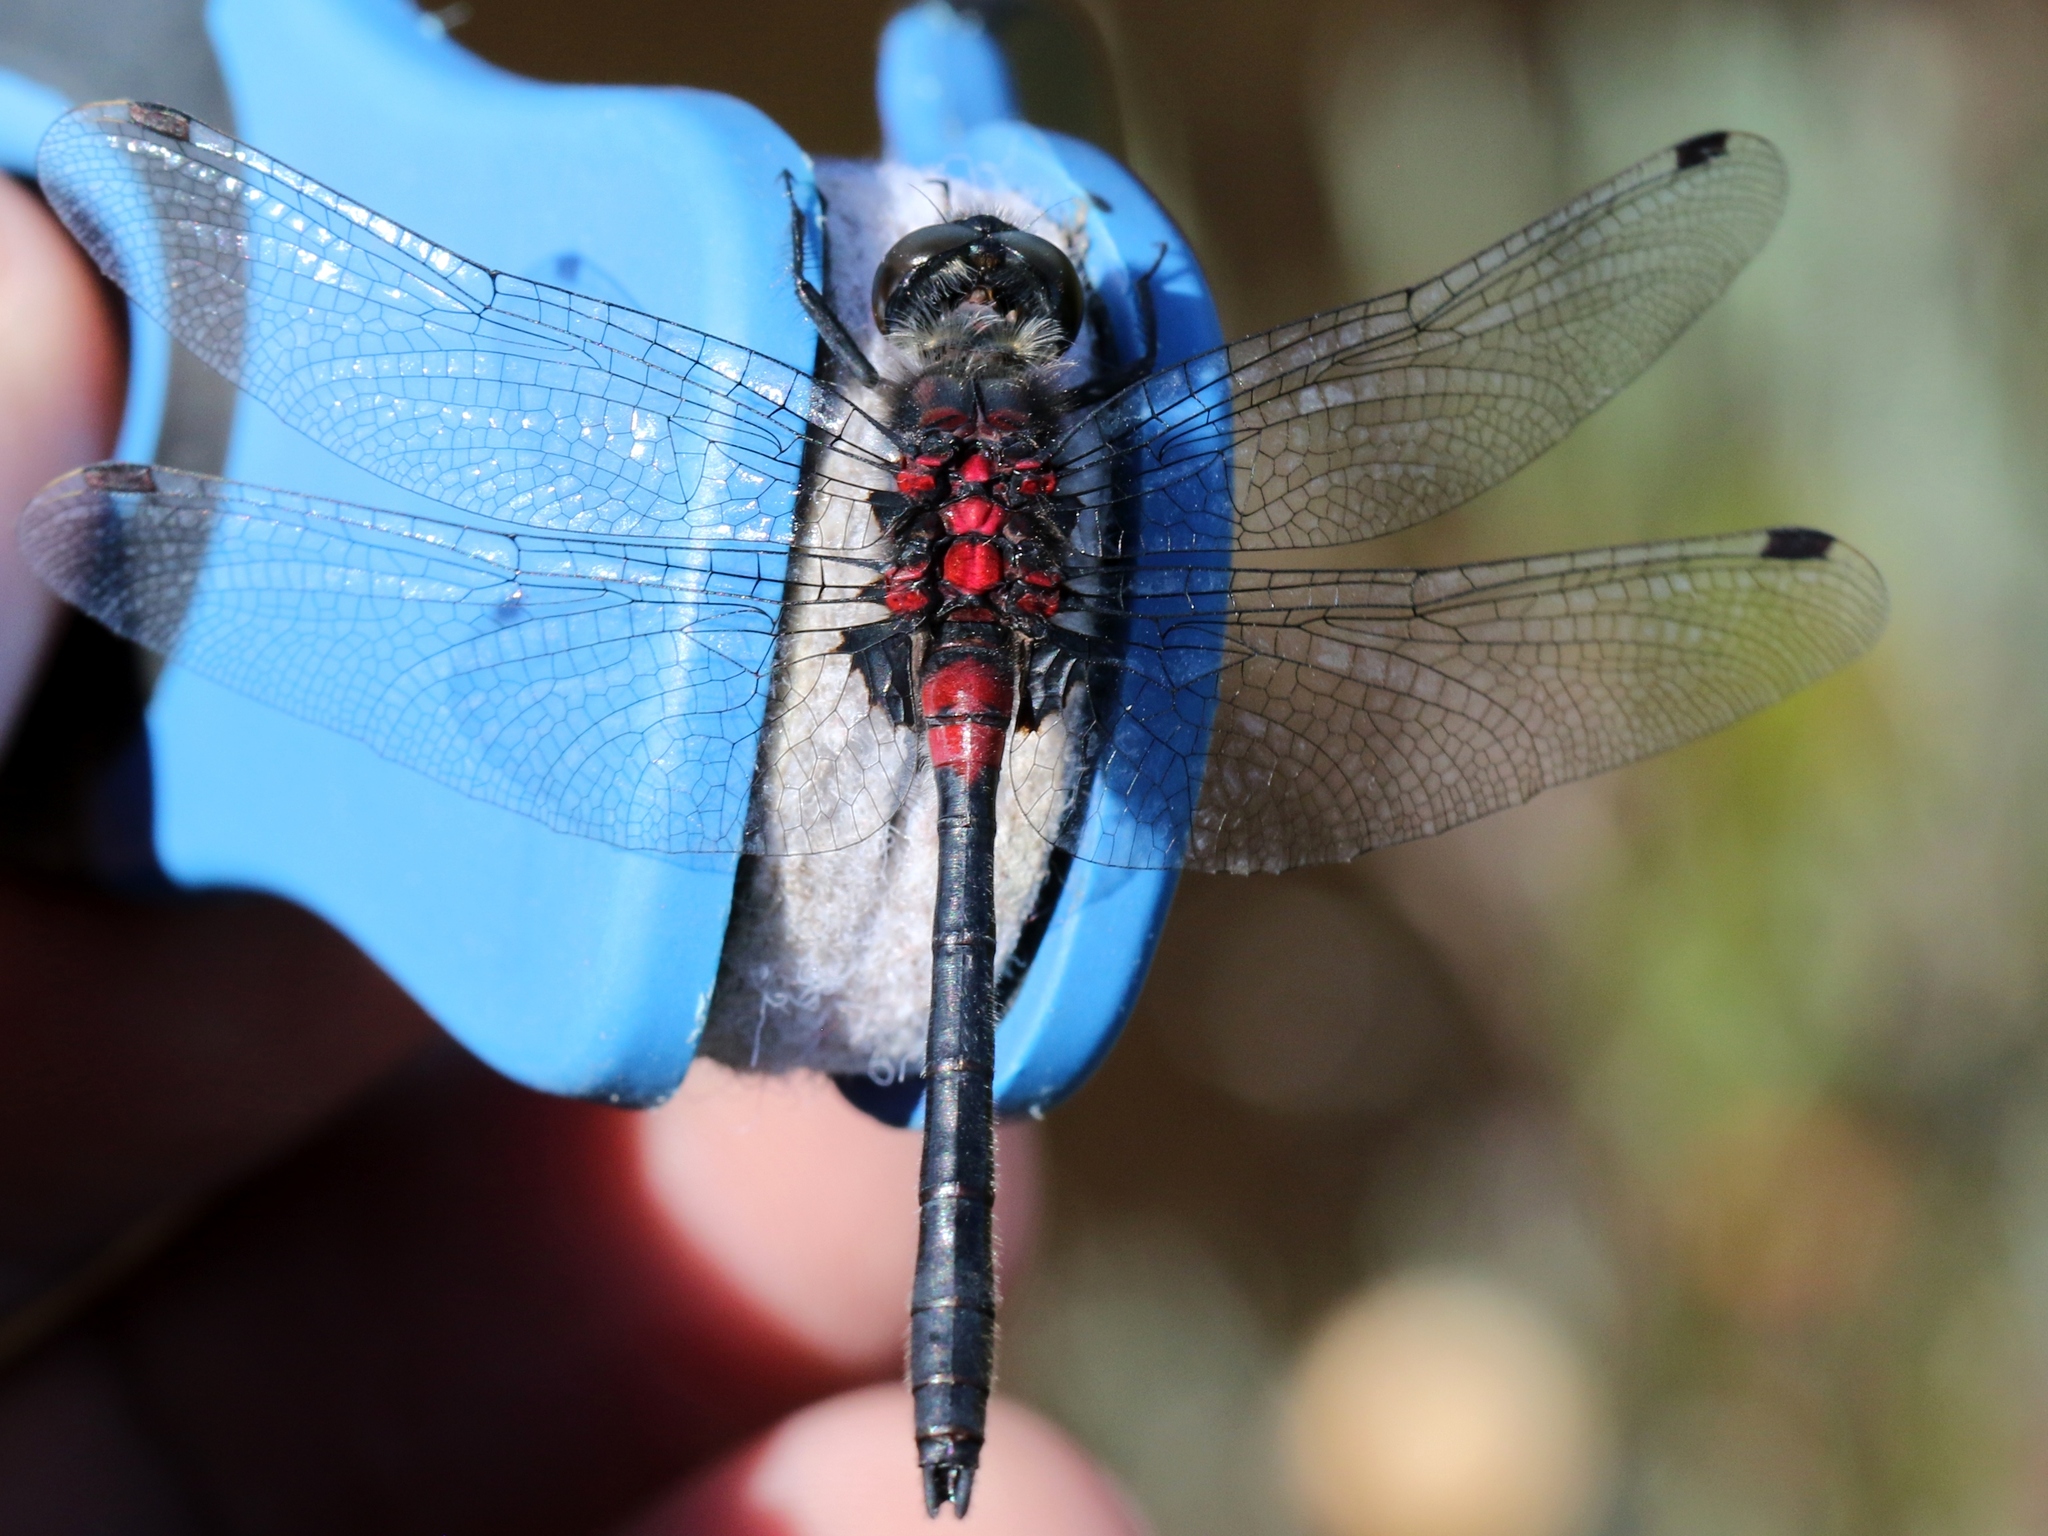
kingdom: Animalia
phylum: Arthropoda
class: Insecta
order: Odonata
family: Libellulidae
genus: Leucorrhinia
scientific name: Leucorrhinia glacialis
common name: Crimson-ringed whiteface
